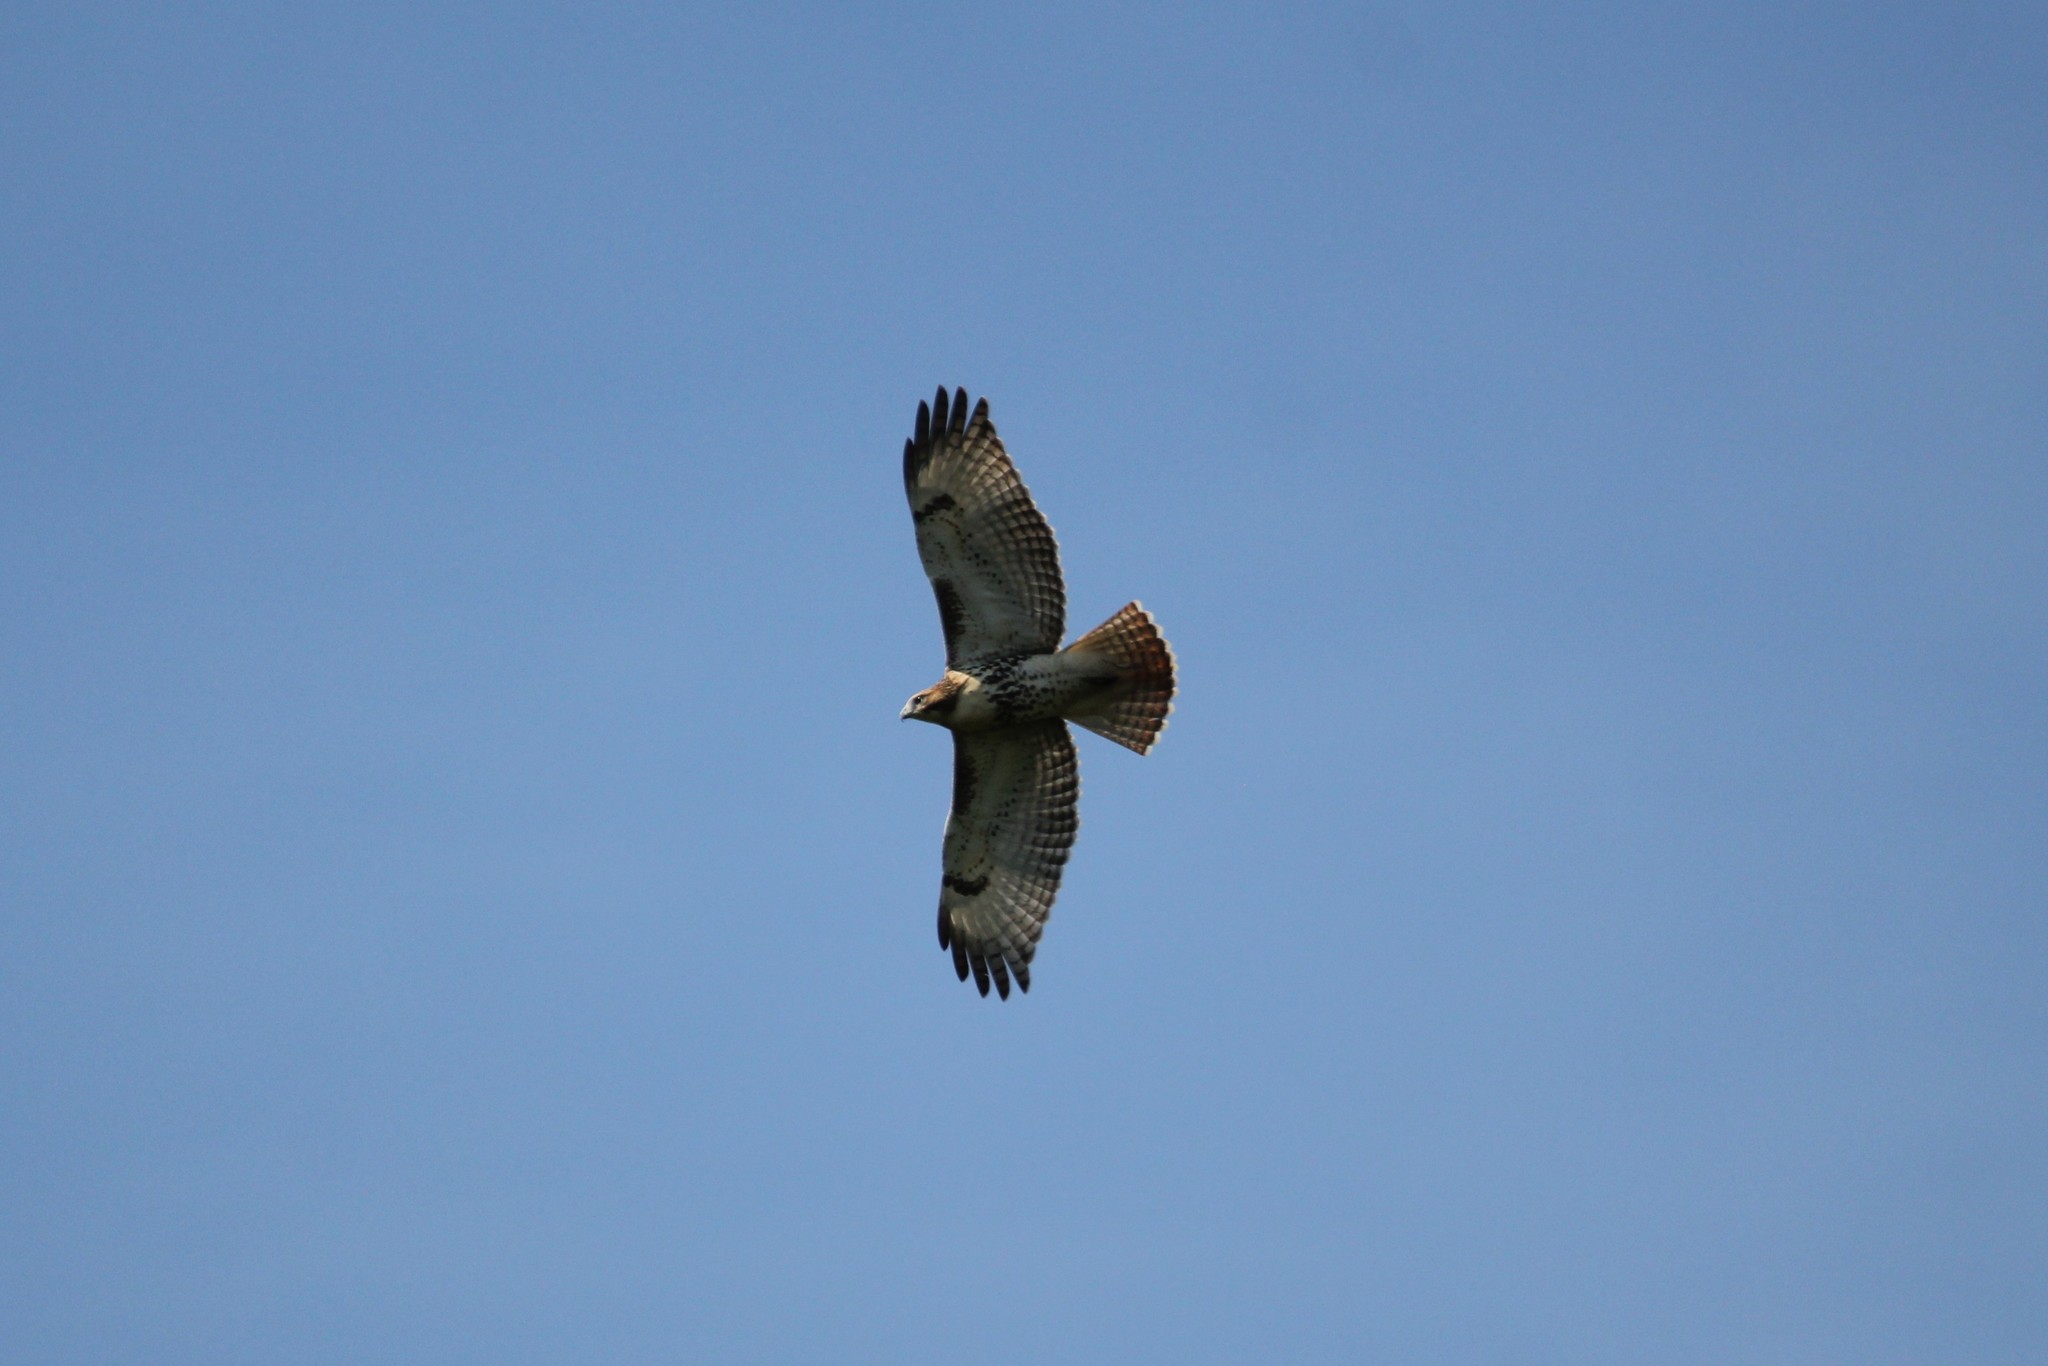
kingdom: Animalia
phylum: Chordata
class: Aves
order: Accipitriformes
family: Accipitridae
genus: Buteo
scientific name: Buteo jamaicensis
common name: Red-tailed hawk
